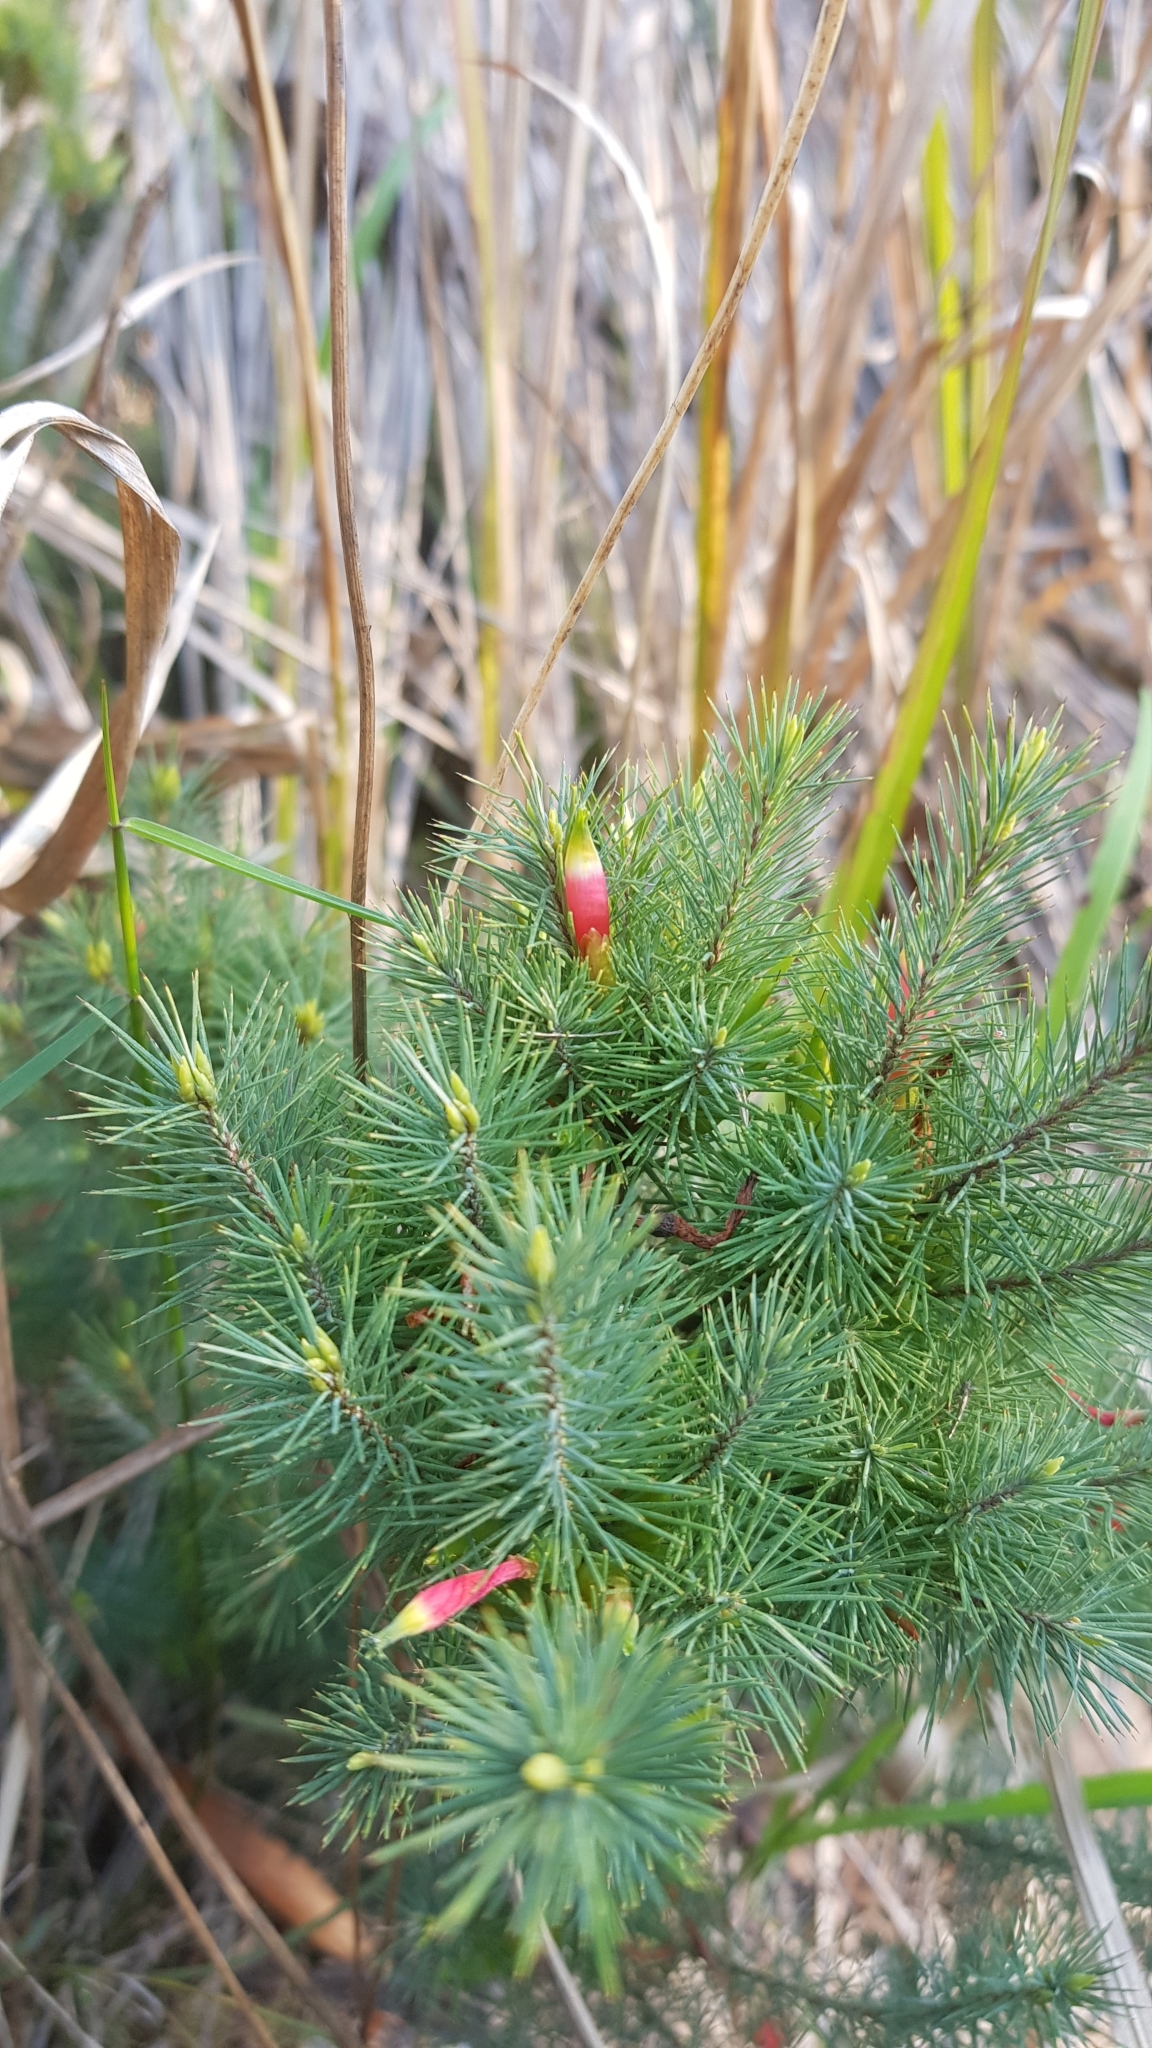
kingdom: Plantae
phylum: Tracheophyta
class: Magnoliopsida
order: Ericales
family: Ericaceae
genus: Stenanthera
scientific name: Stenanthera pinifolia
